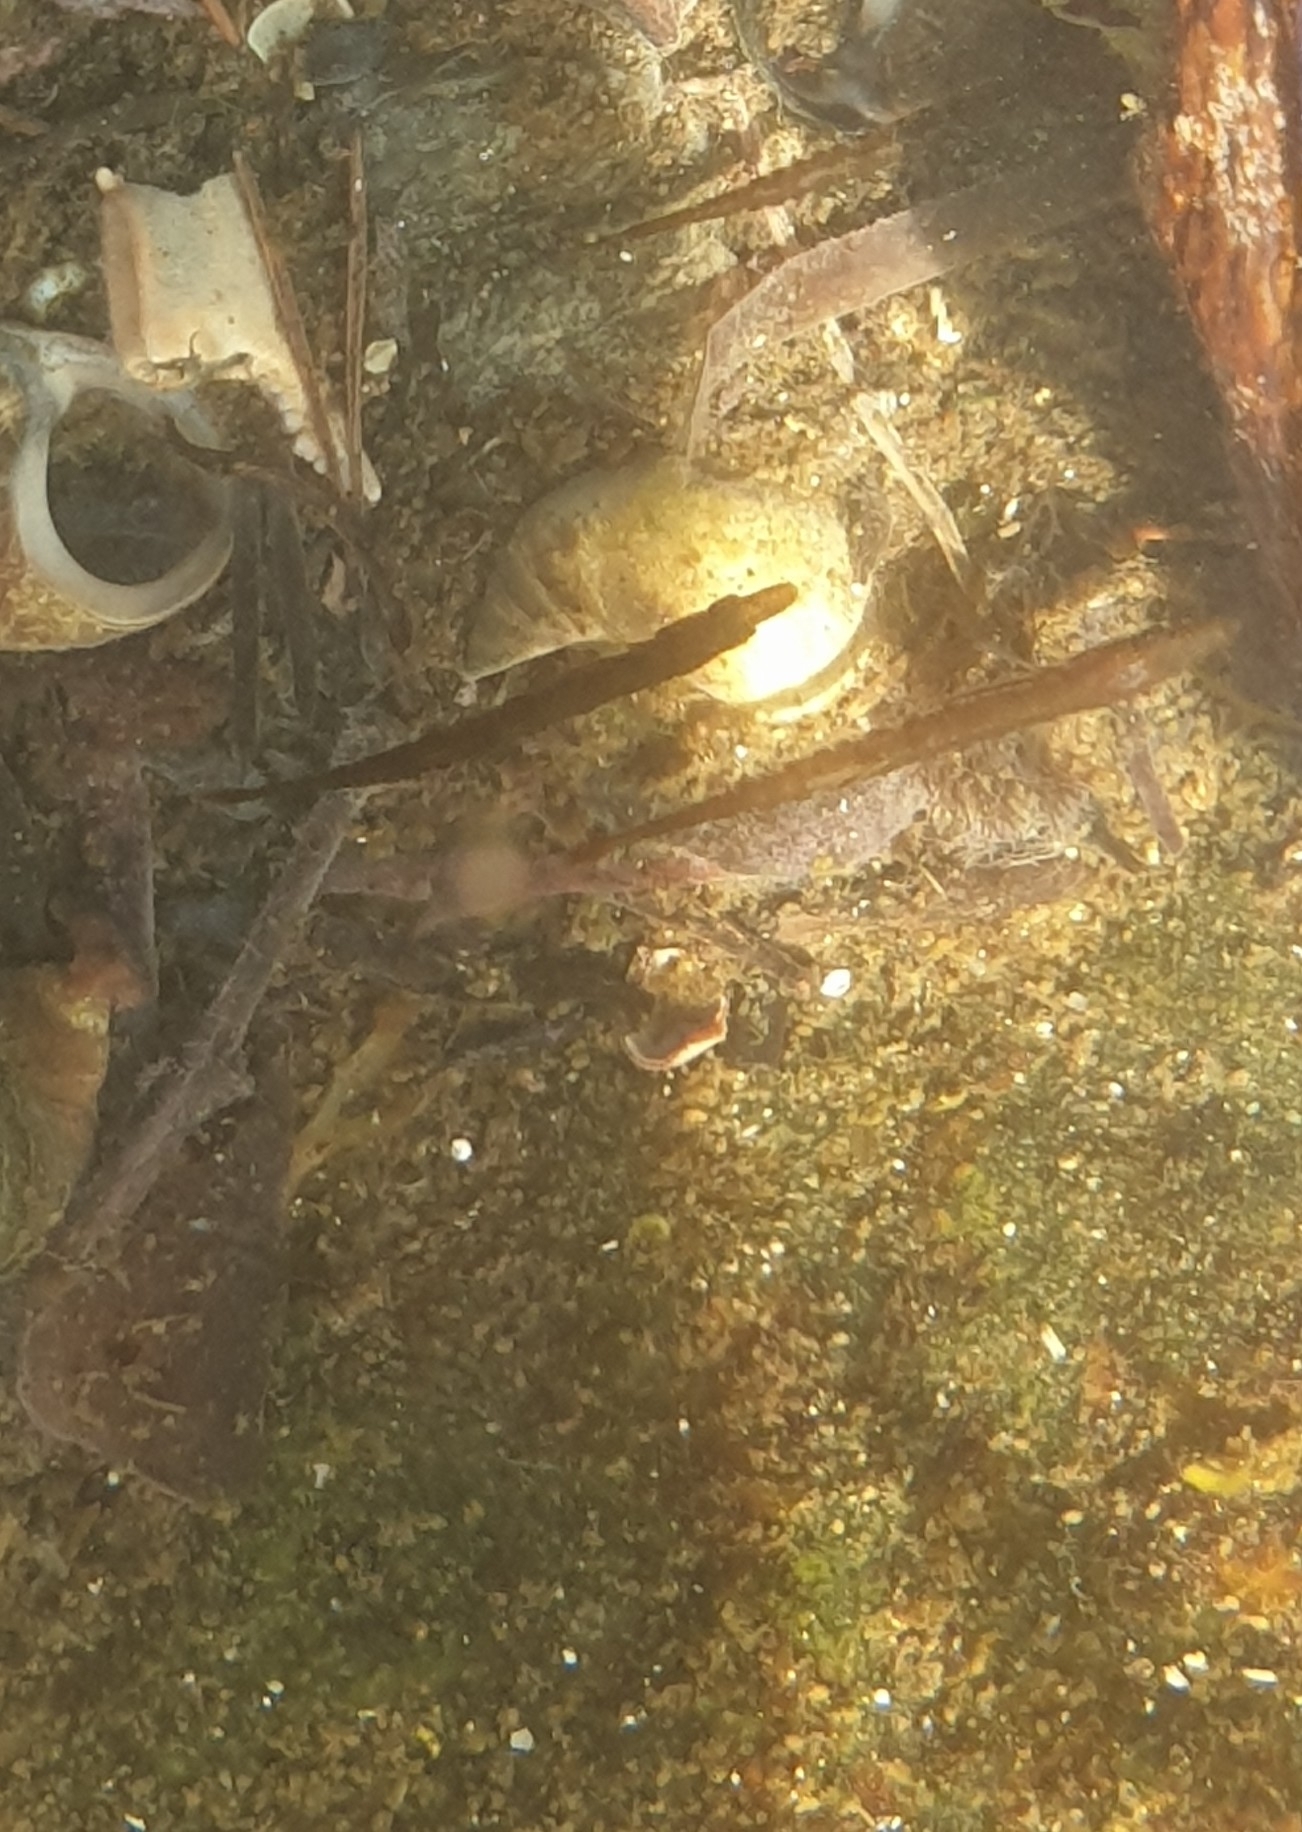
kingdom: Animalia
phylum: Chordata
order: Gasterosteiformes
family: Gasterosteidae
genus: Spinachia
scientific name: Spinachia spinachia
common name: Fifteen-spined stickleback
